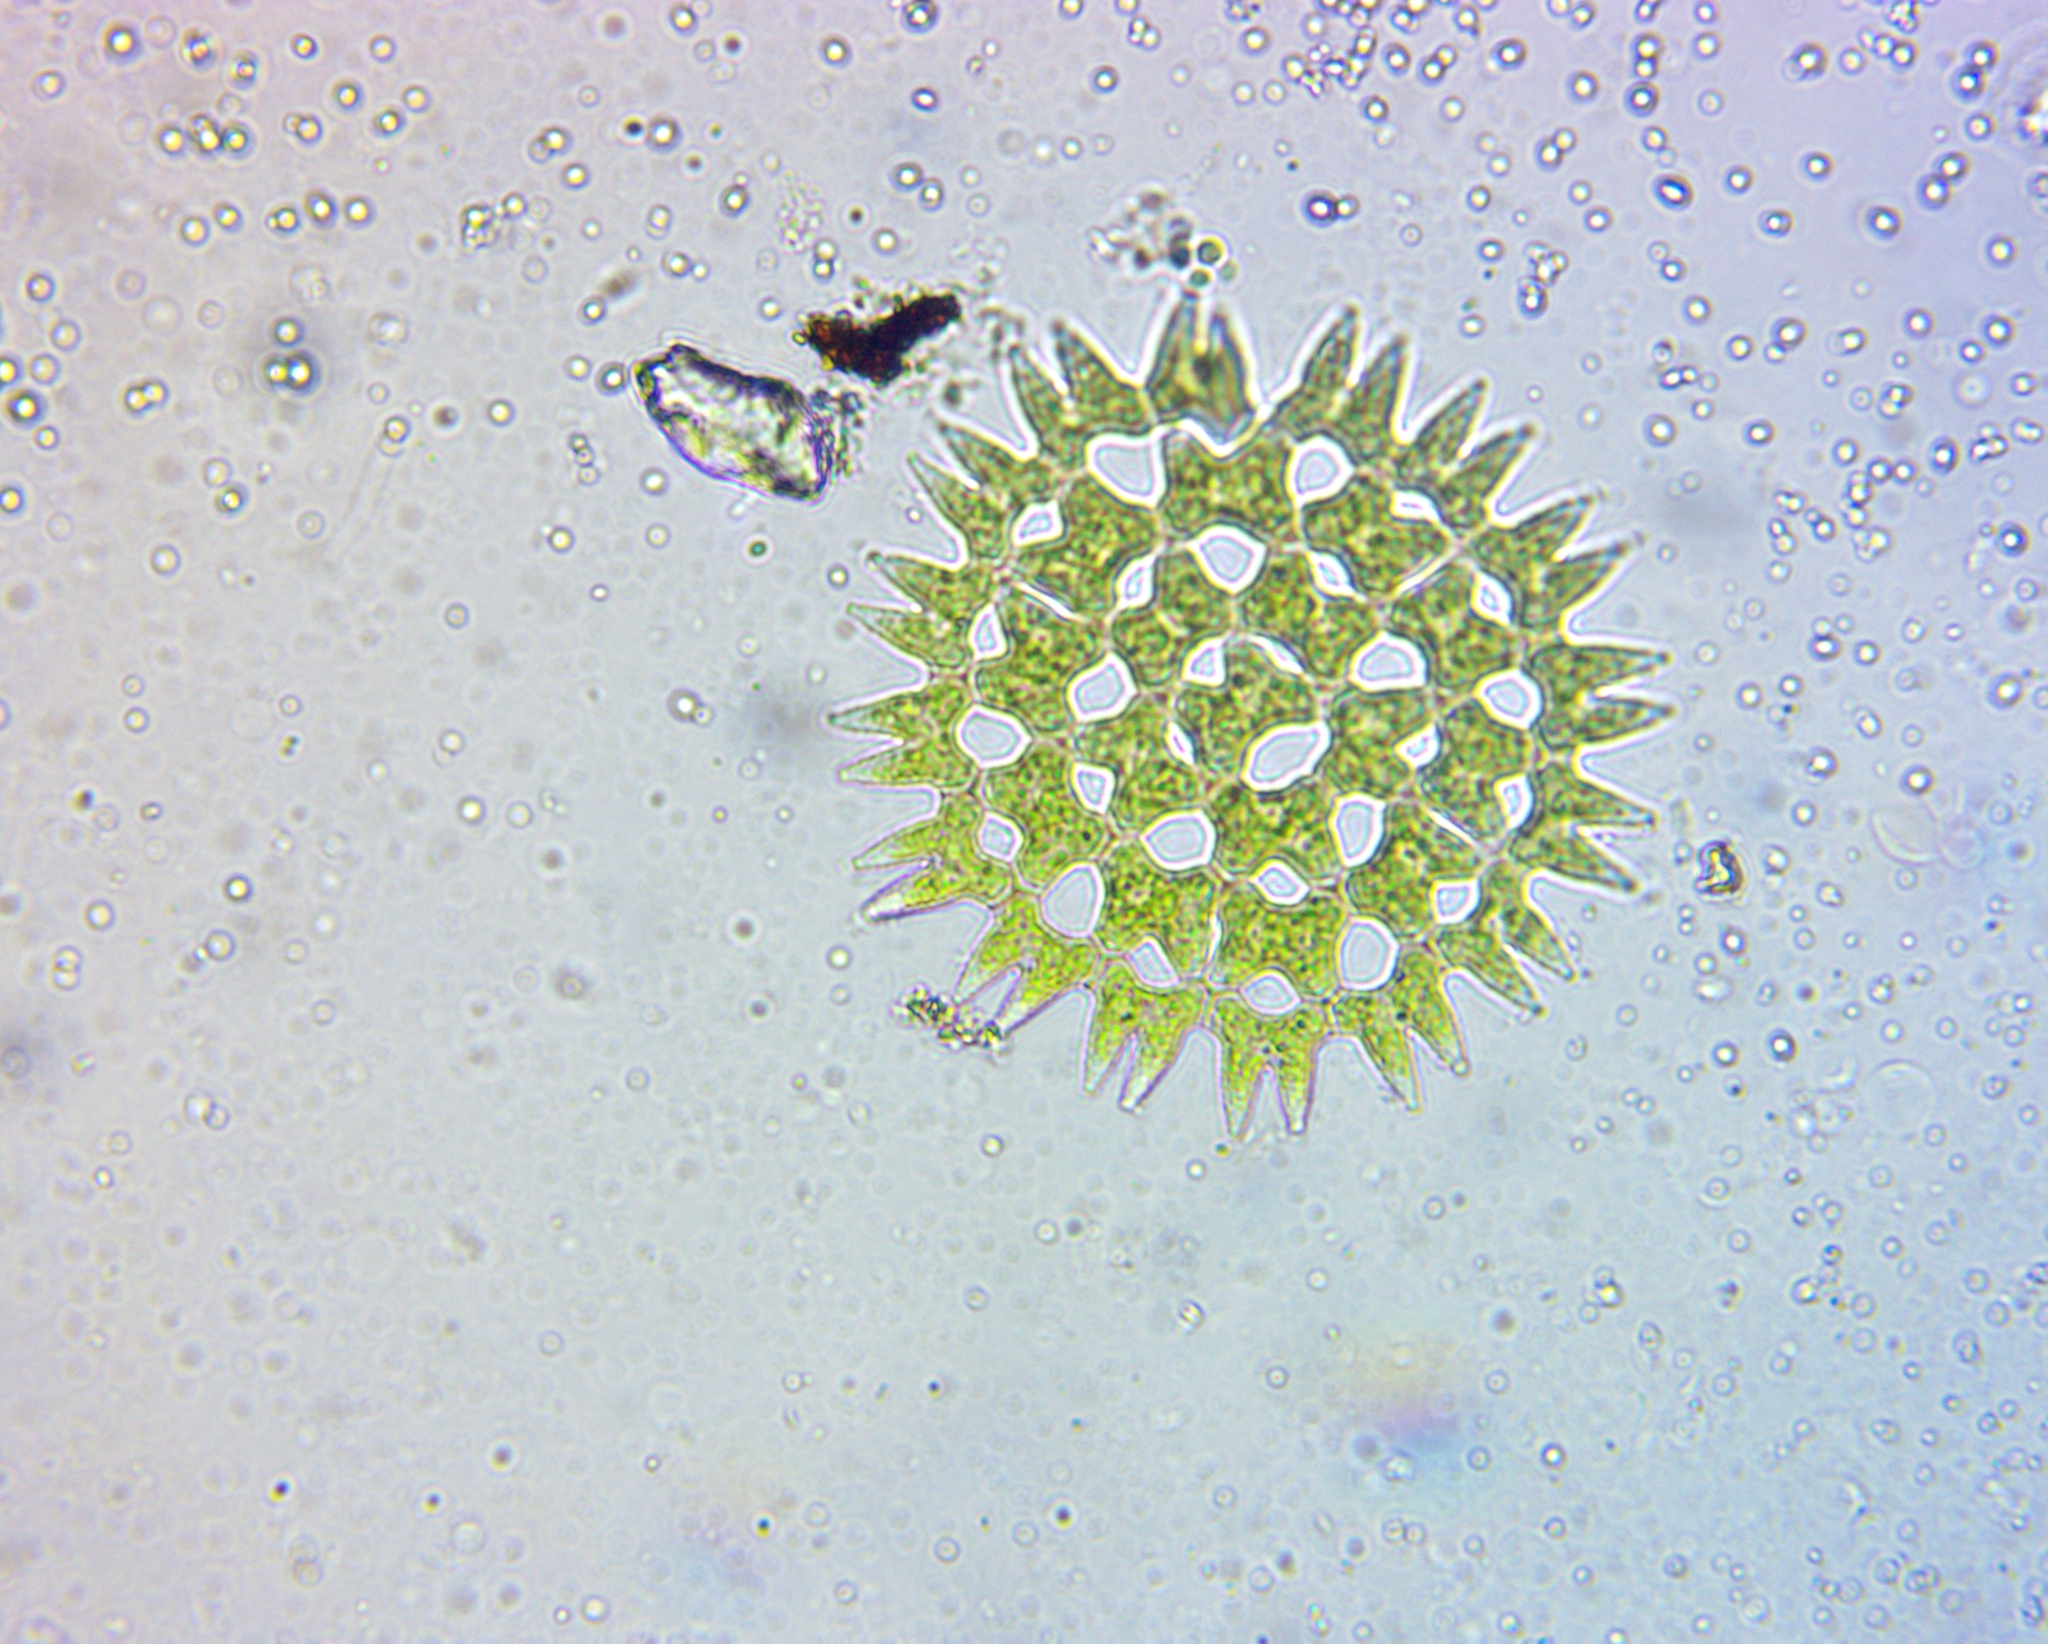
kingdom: Plantae
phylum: Chlorophyta
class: Chlorophyceae
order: Sphaeropleales
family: Hydrodictyaceae
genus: Pediastrum
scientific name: Pediastrum duplex
